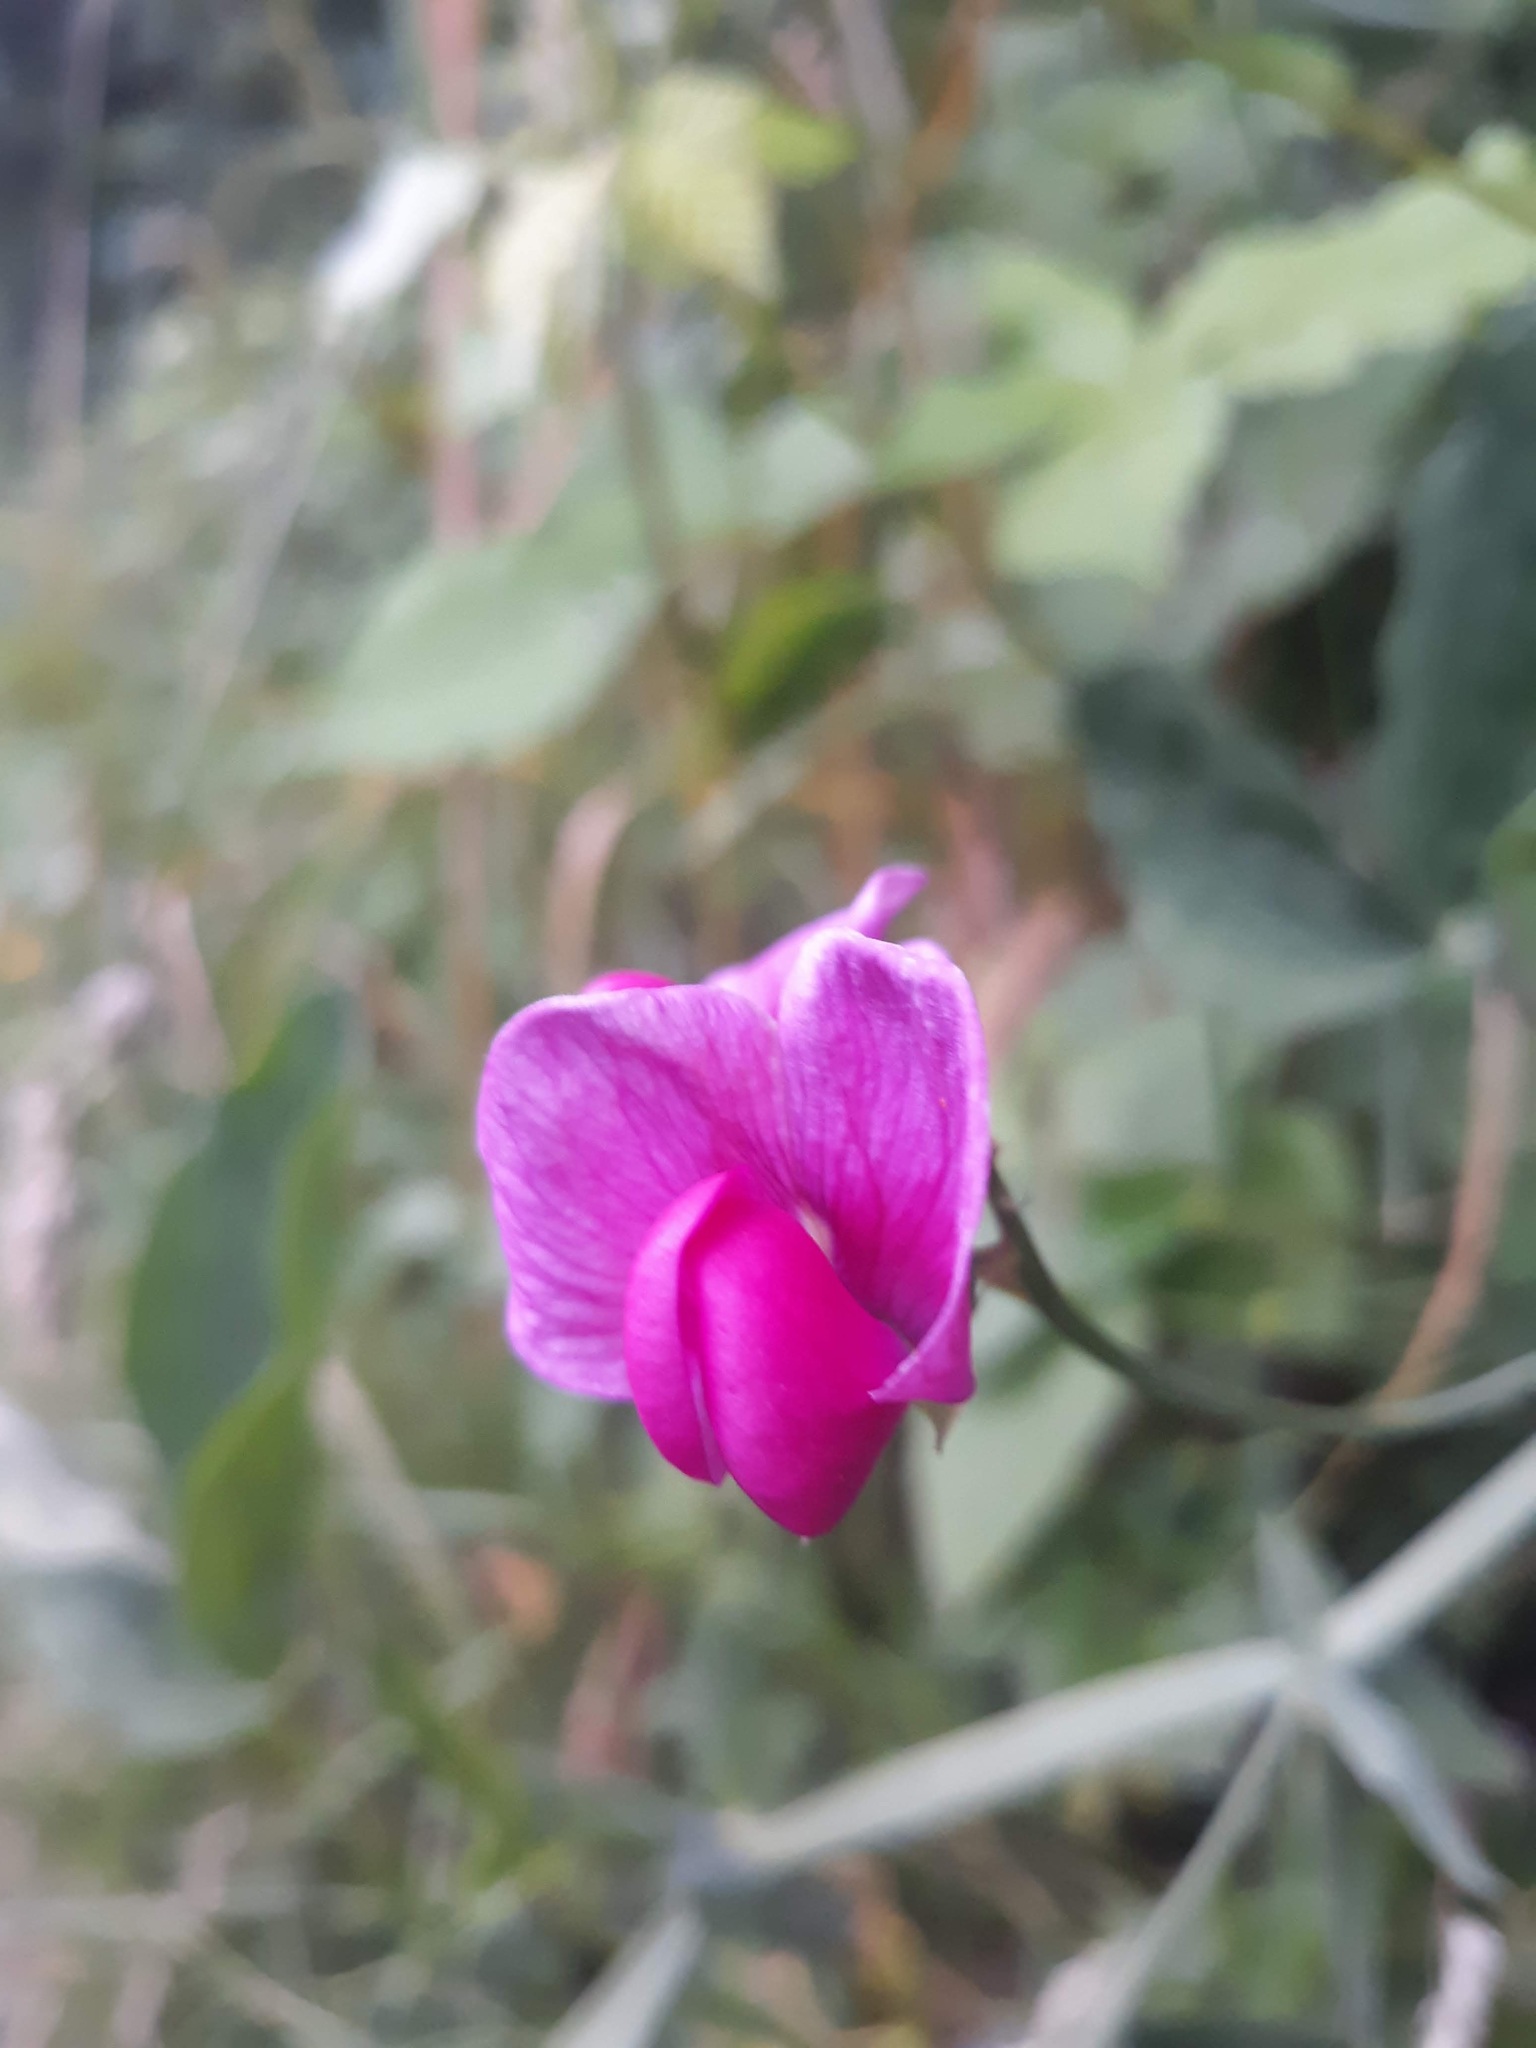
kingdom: Plantae
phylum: Tracheophyta
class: Magnoliopsida
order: Fabales
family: Fabaceae
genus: Lathyrus
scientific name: Lathyrus latifolius
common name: Perennial pea
